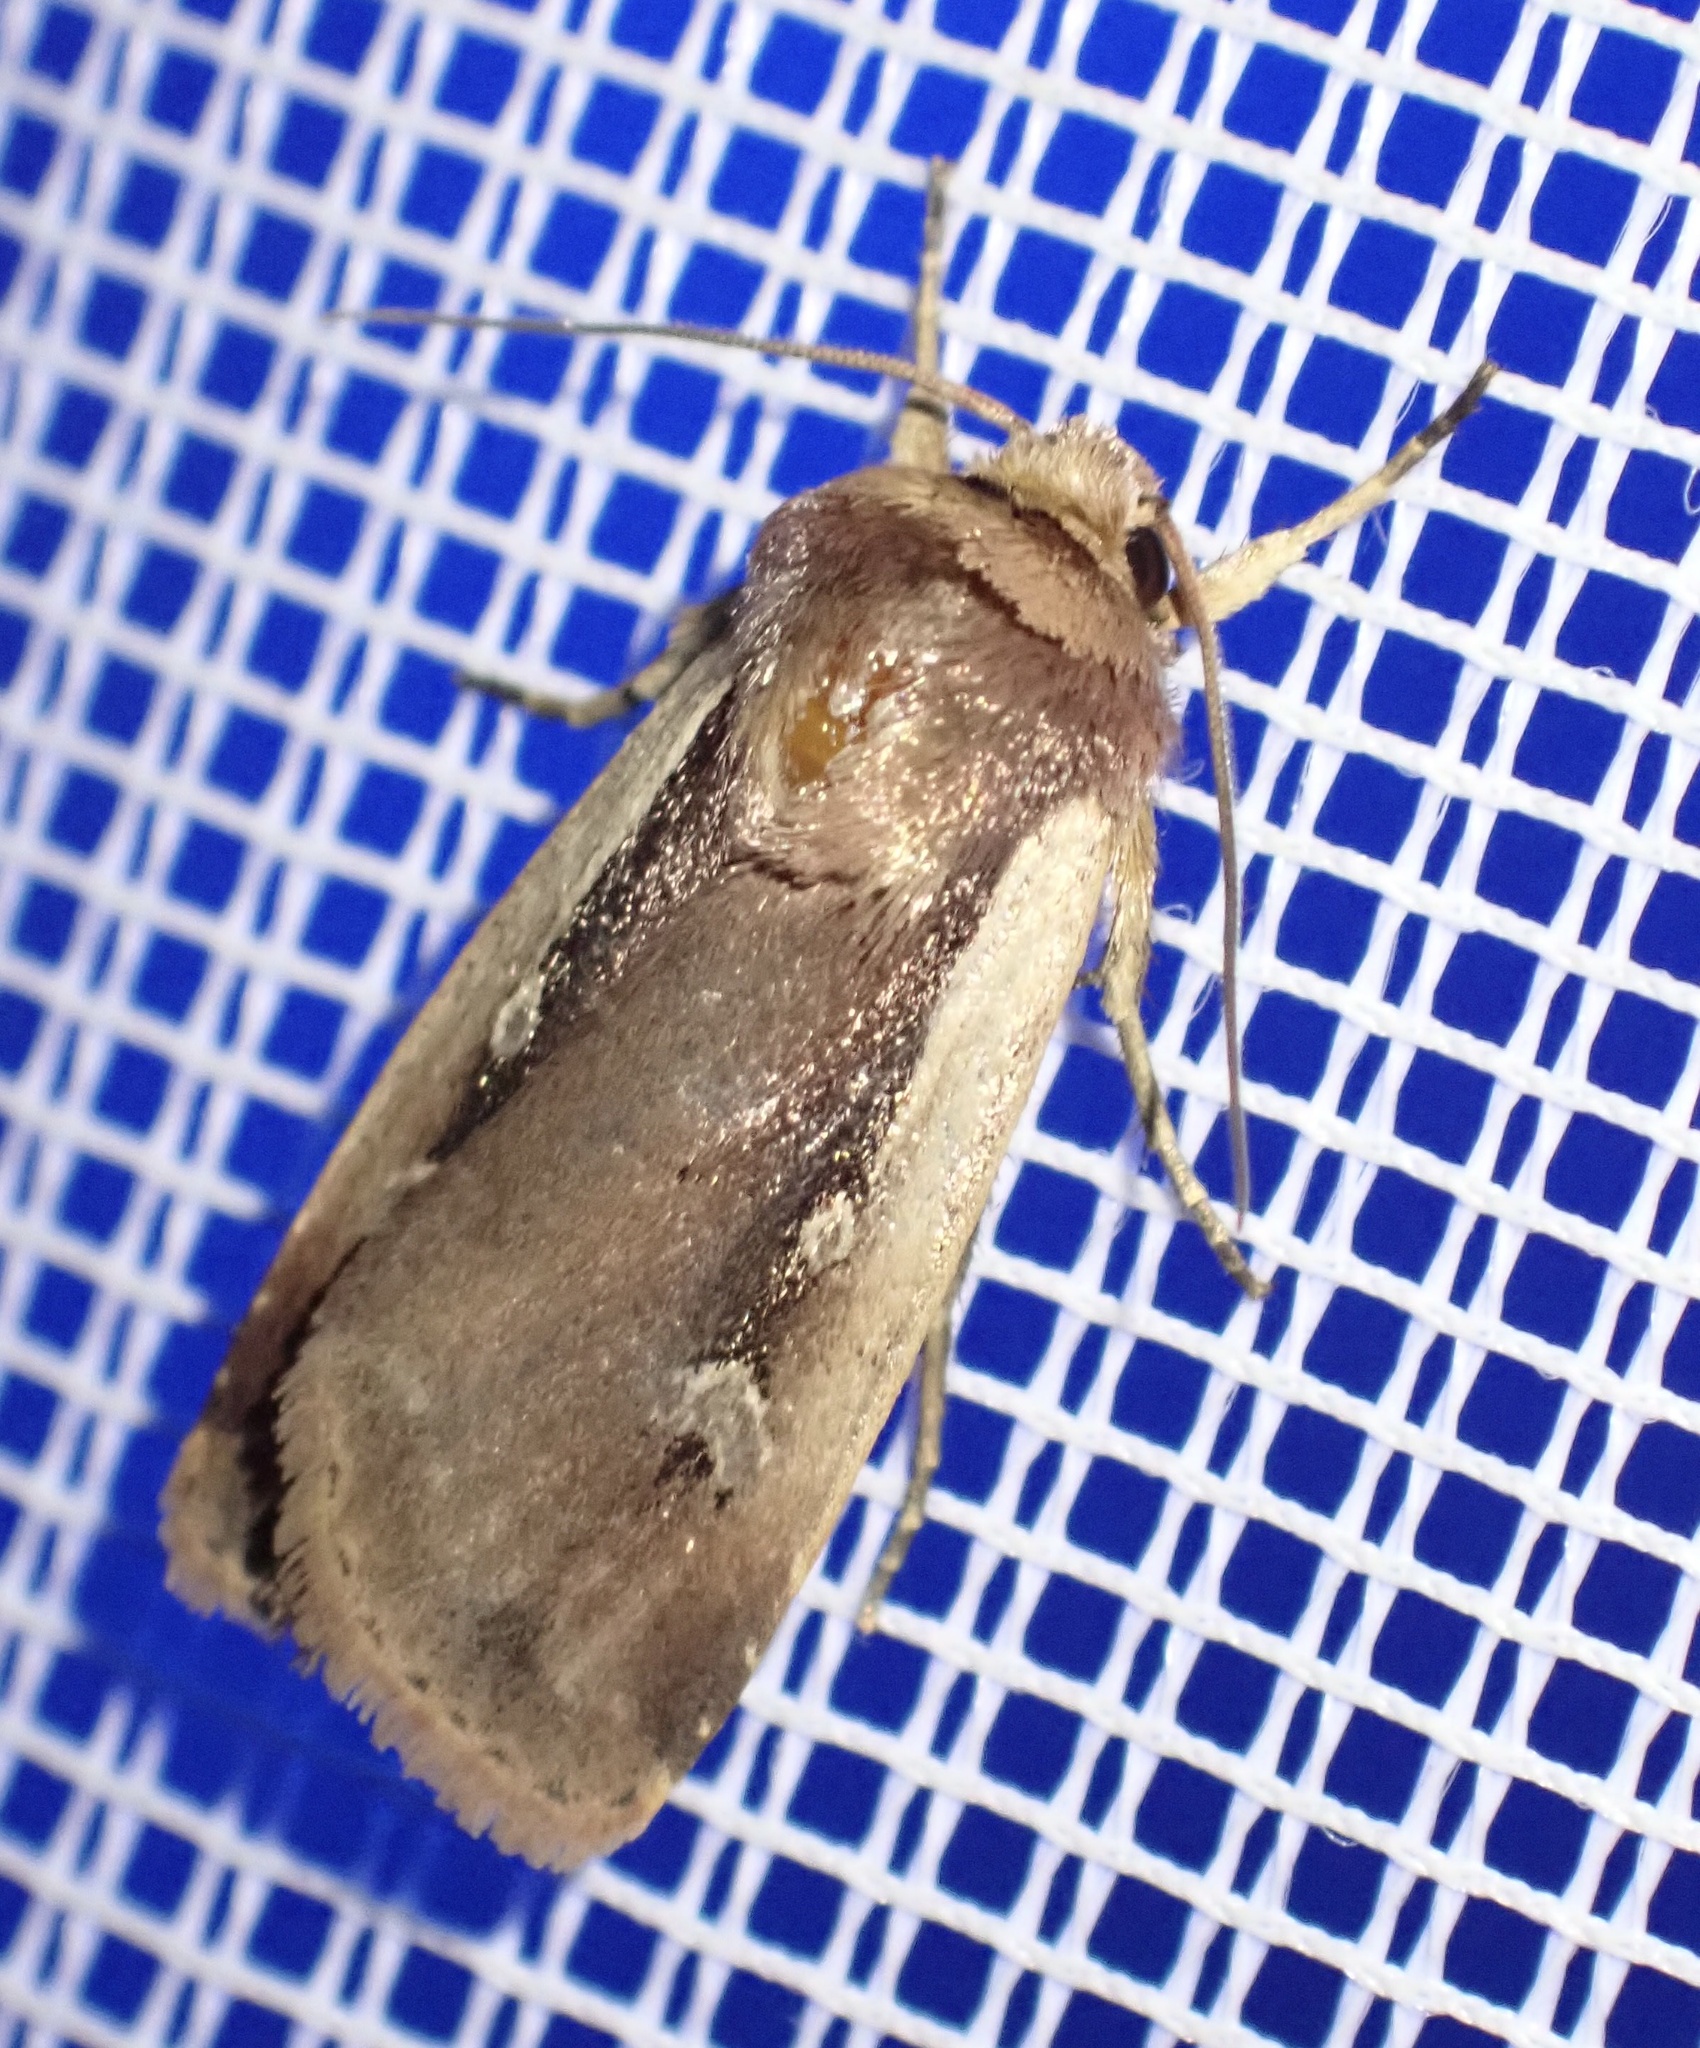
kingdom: Animalia
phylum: Arthropoda
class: Insecta
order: Lepidoptera
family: Noctuidae
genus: Ochropleura
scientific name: Ochropleura plecta
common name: Flame shoulder
